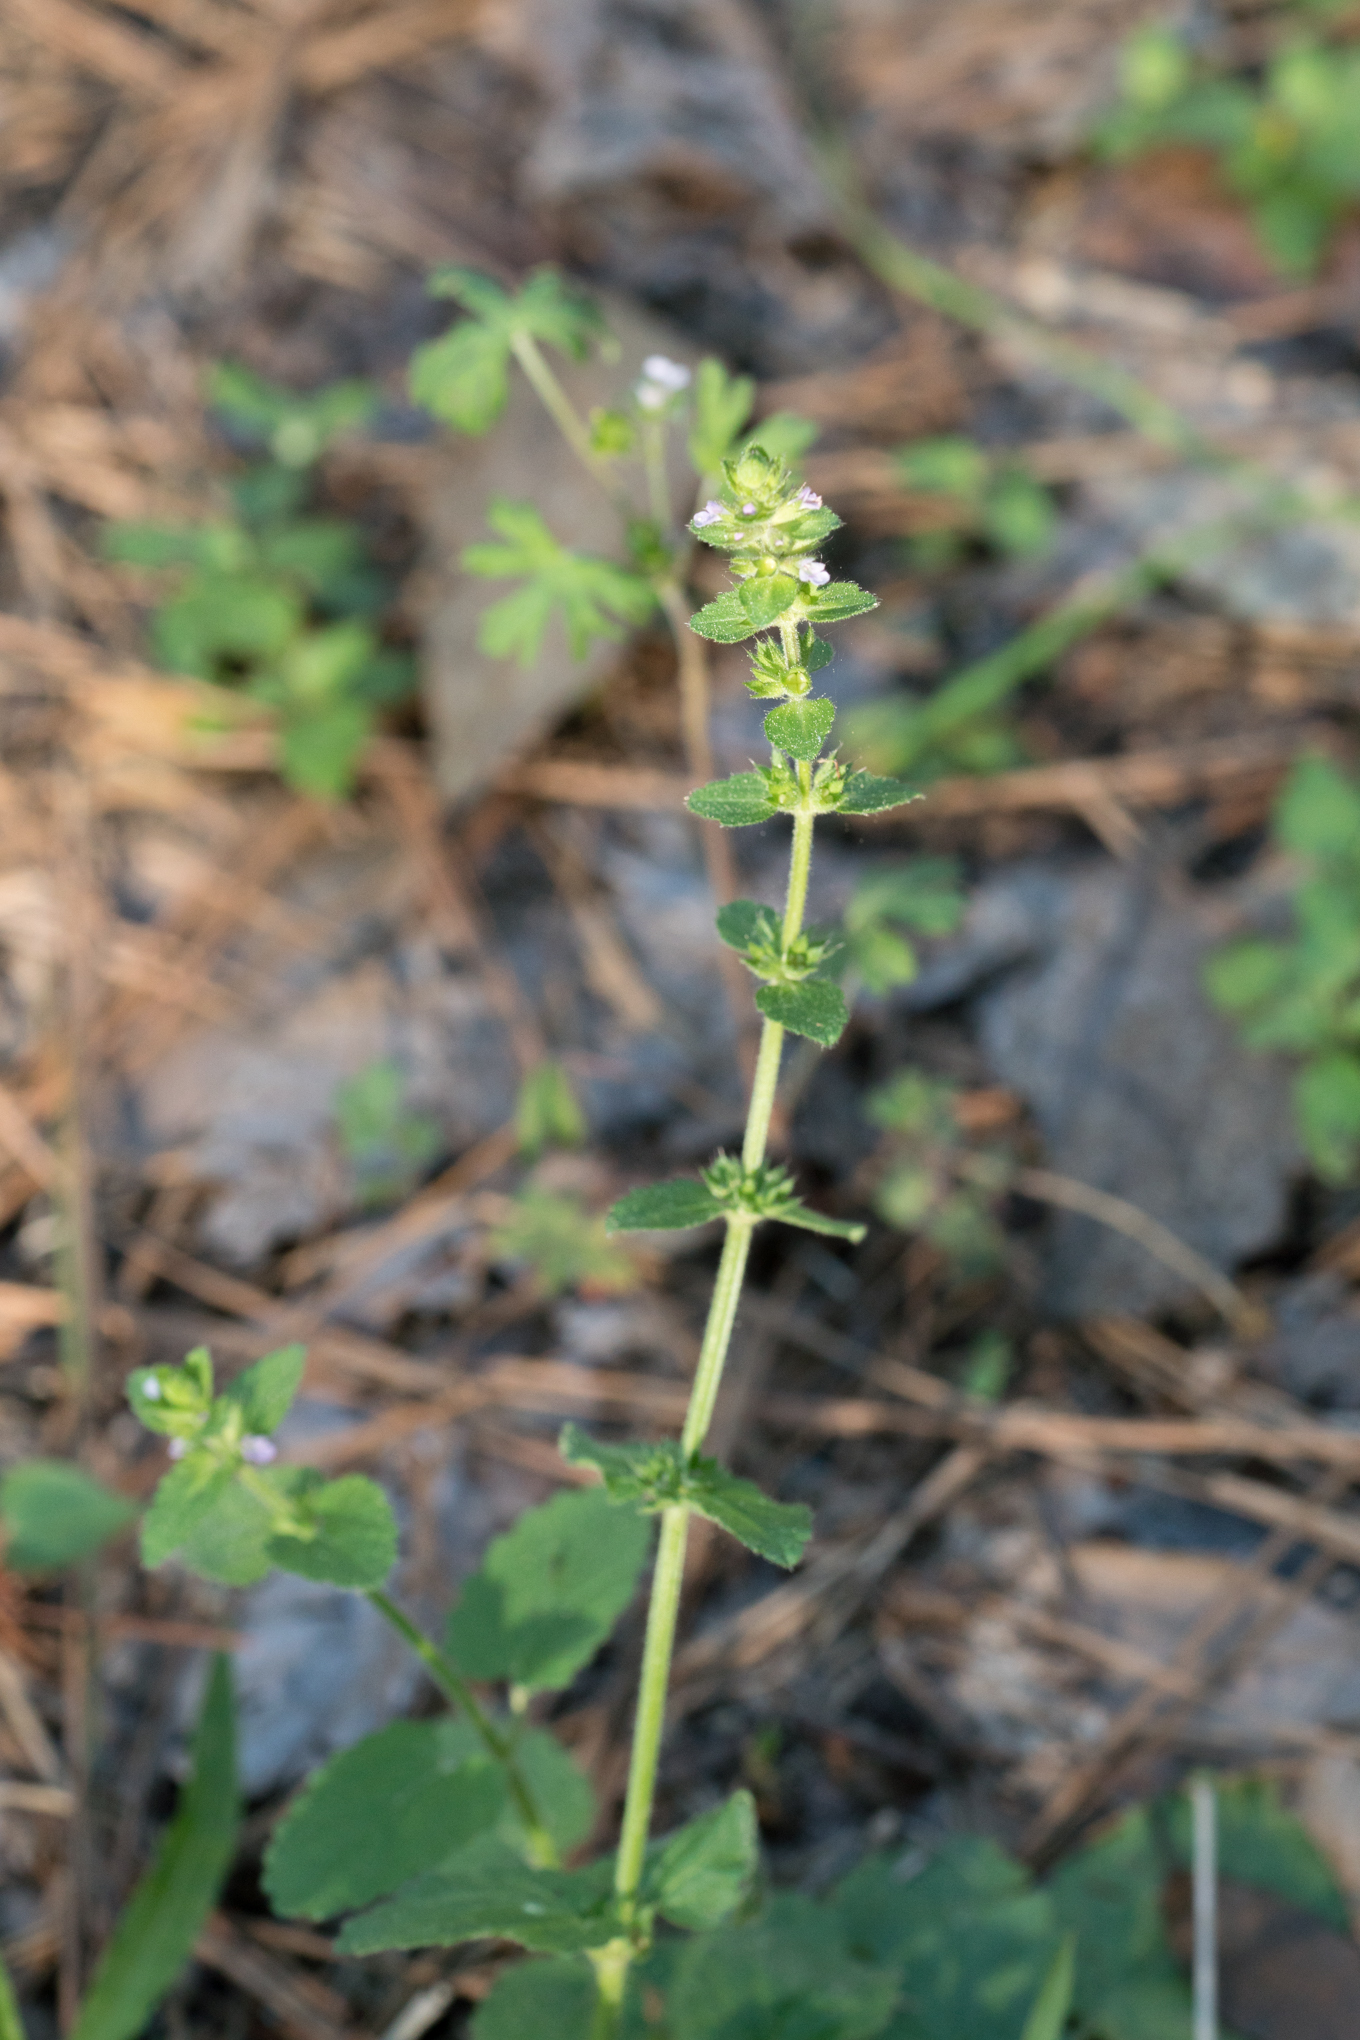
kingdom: Plantae
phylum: Tracheophyta
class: Magnoliopsida
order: Lamiales
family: Lamiaceae
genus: Stachys
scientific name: Stachys
